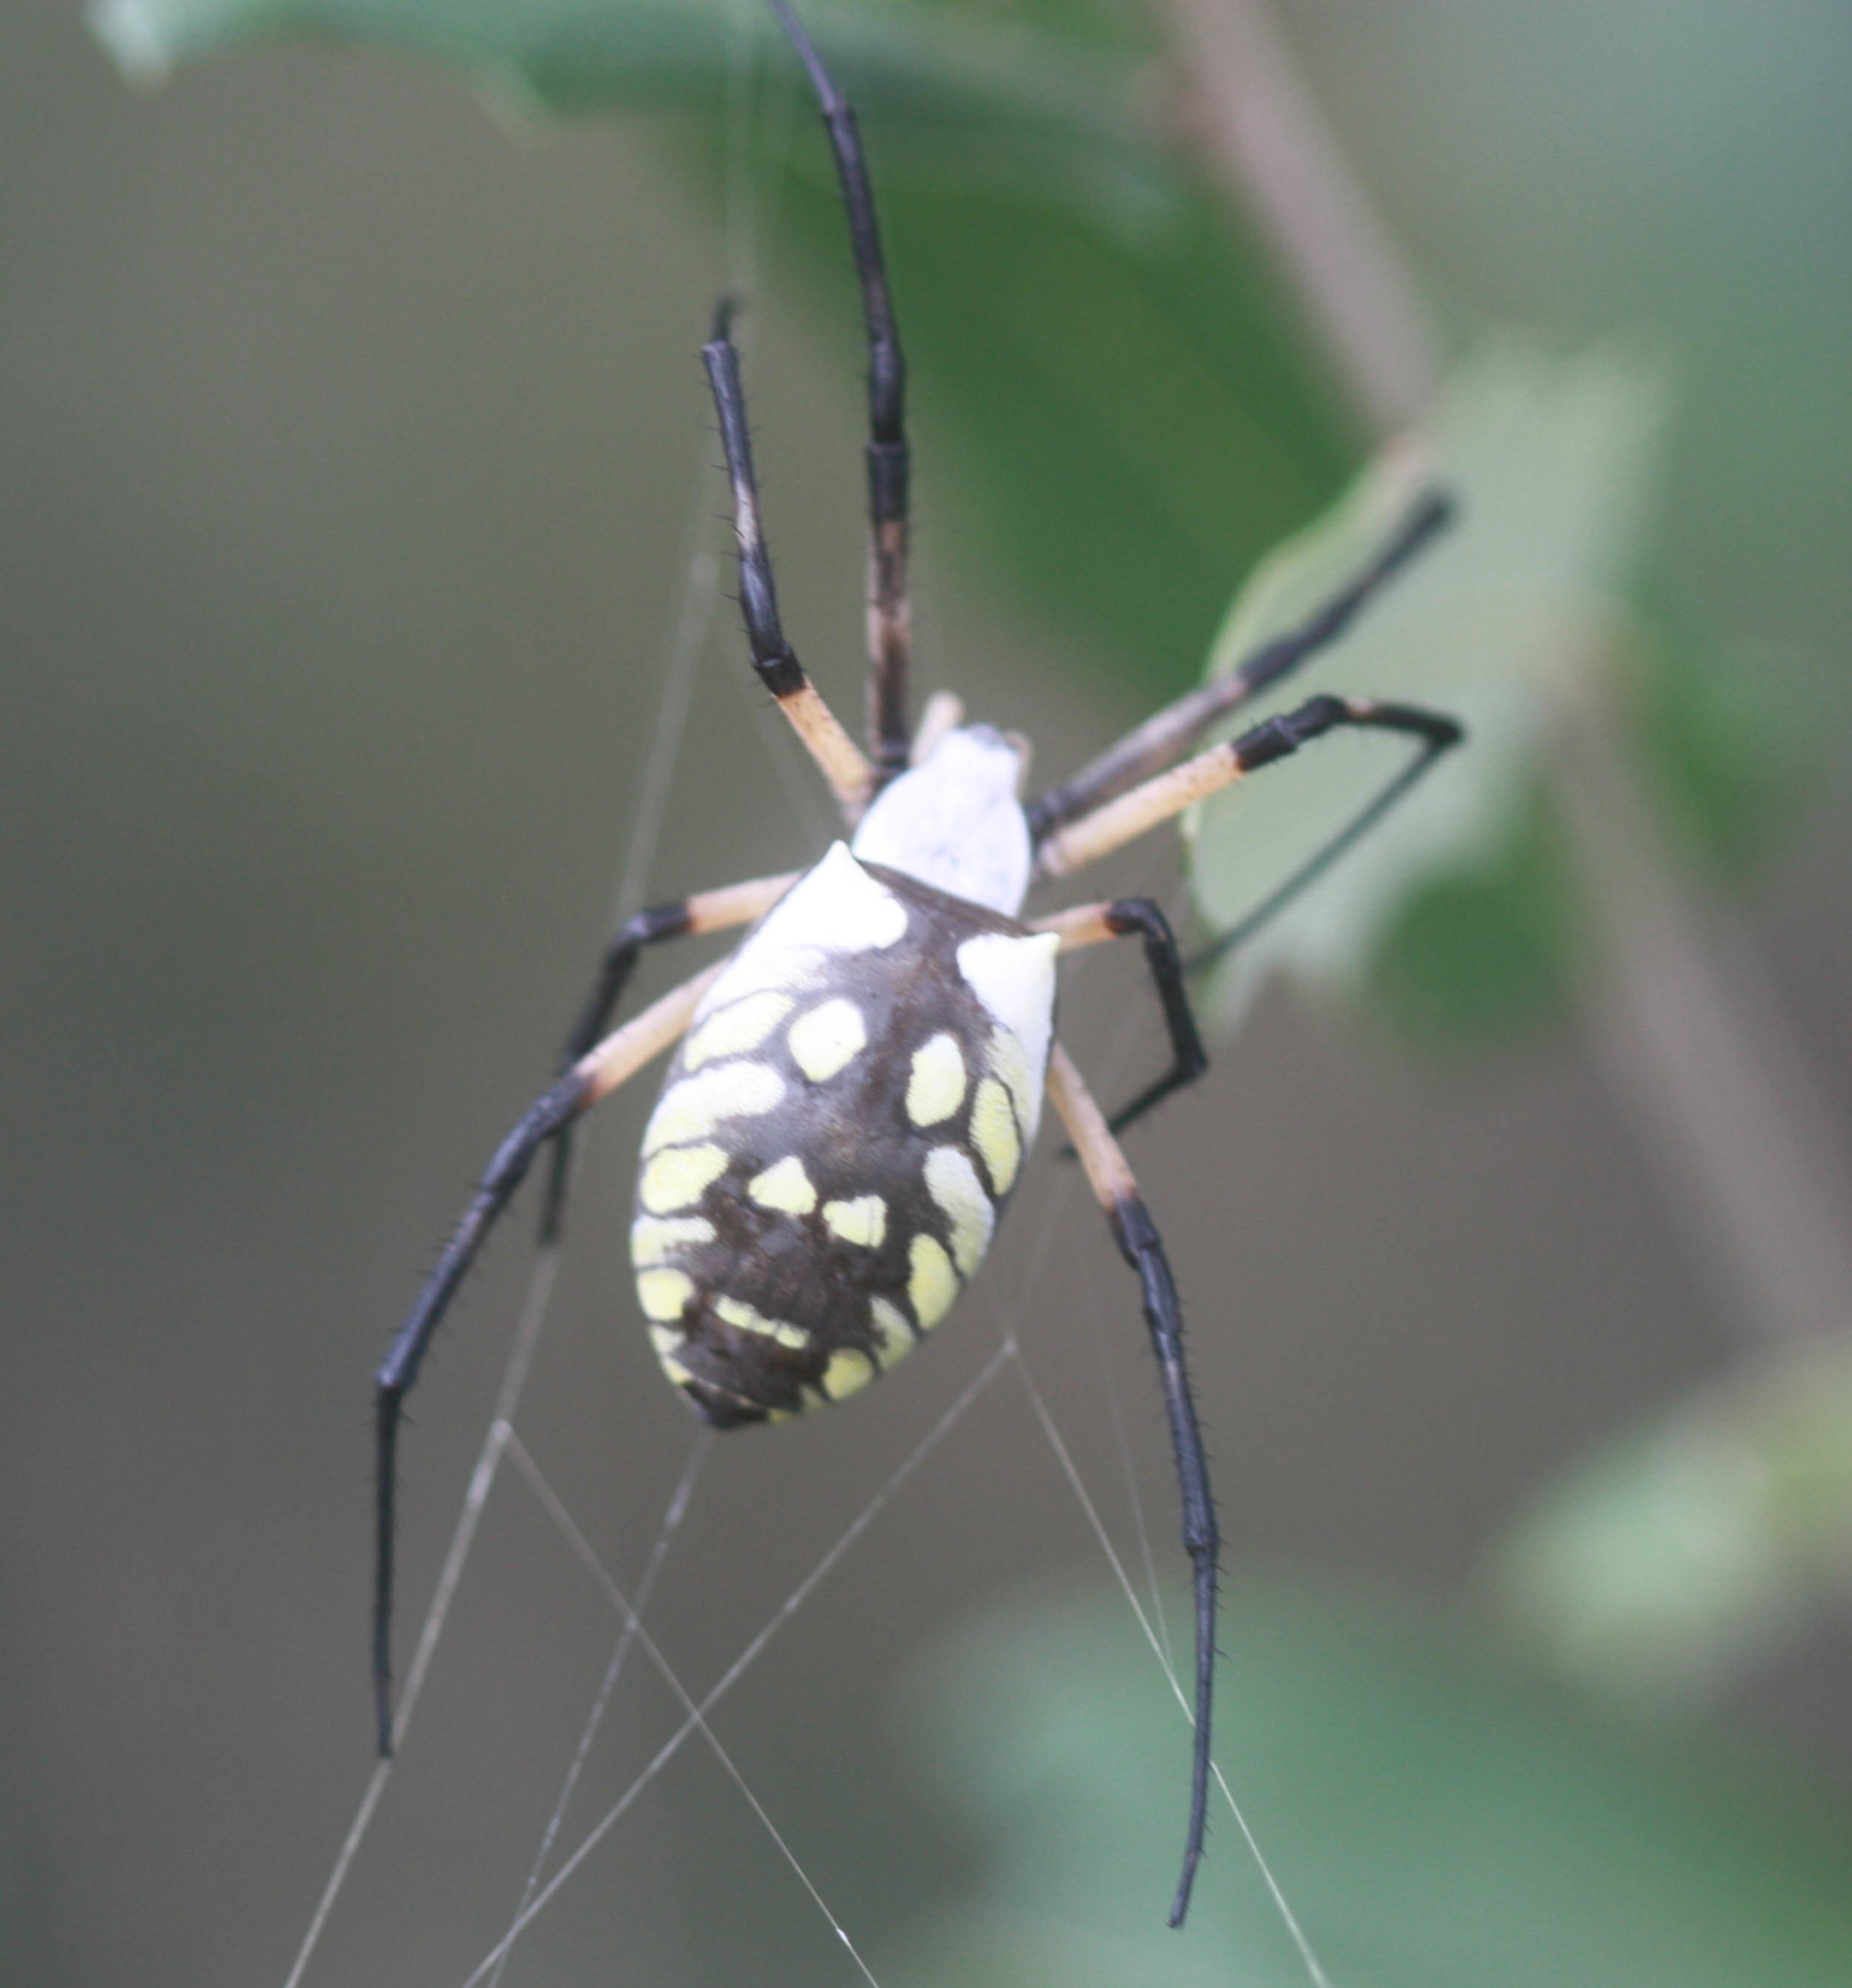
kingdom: Animalia
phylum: Arthropoda
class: Arachnida
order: Araneae
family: Araneidae
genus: Argiope
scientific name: Argiope aurantia
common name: Orb weavers
